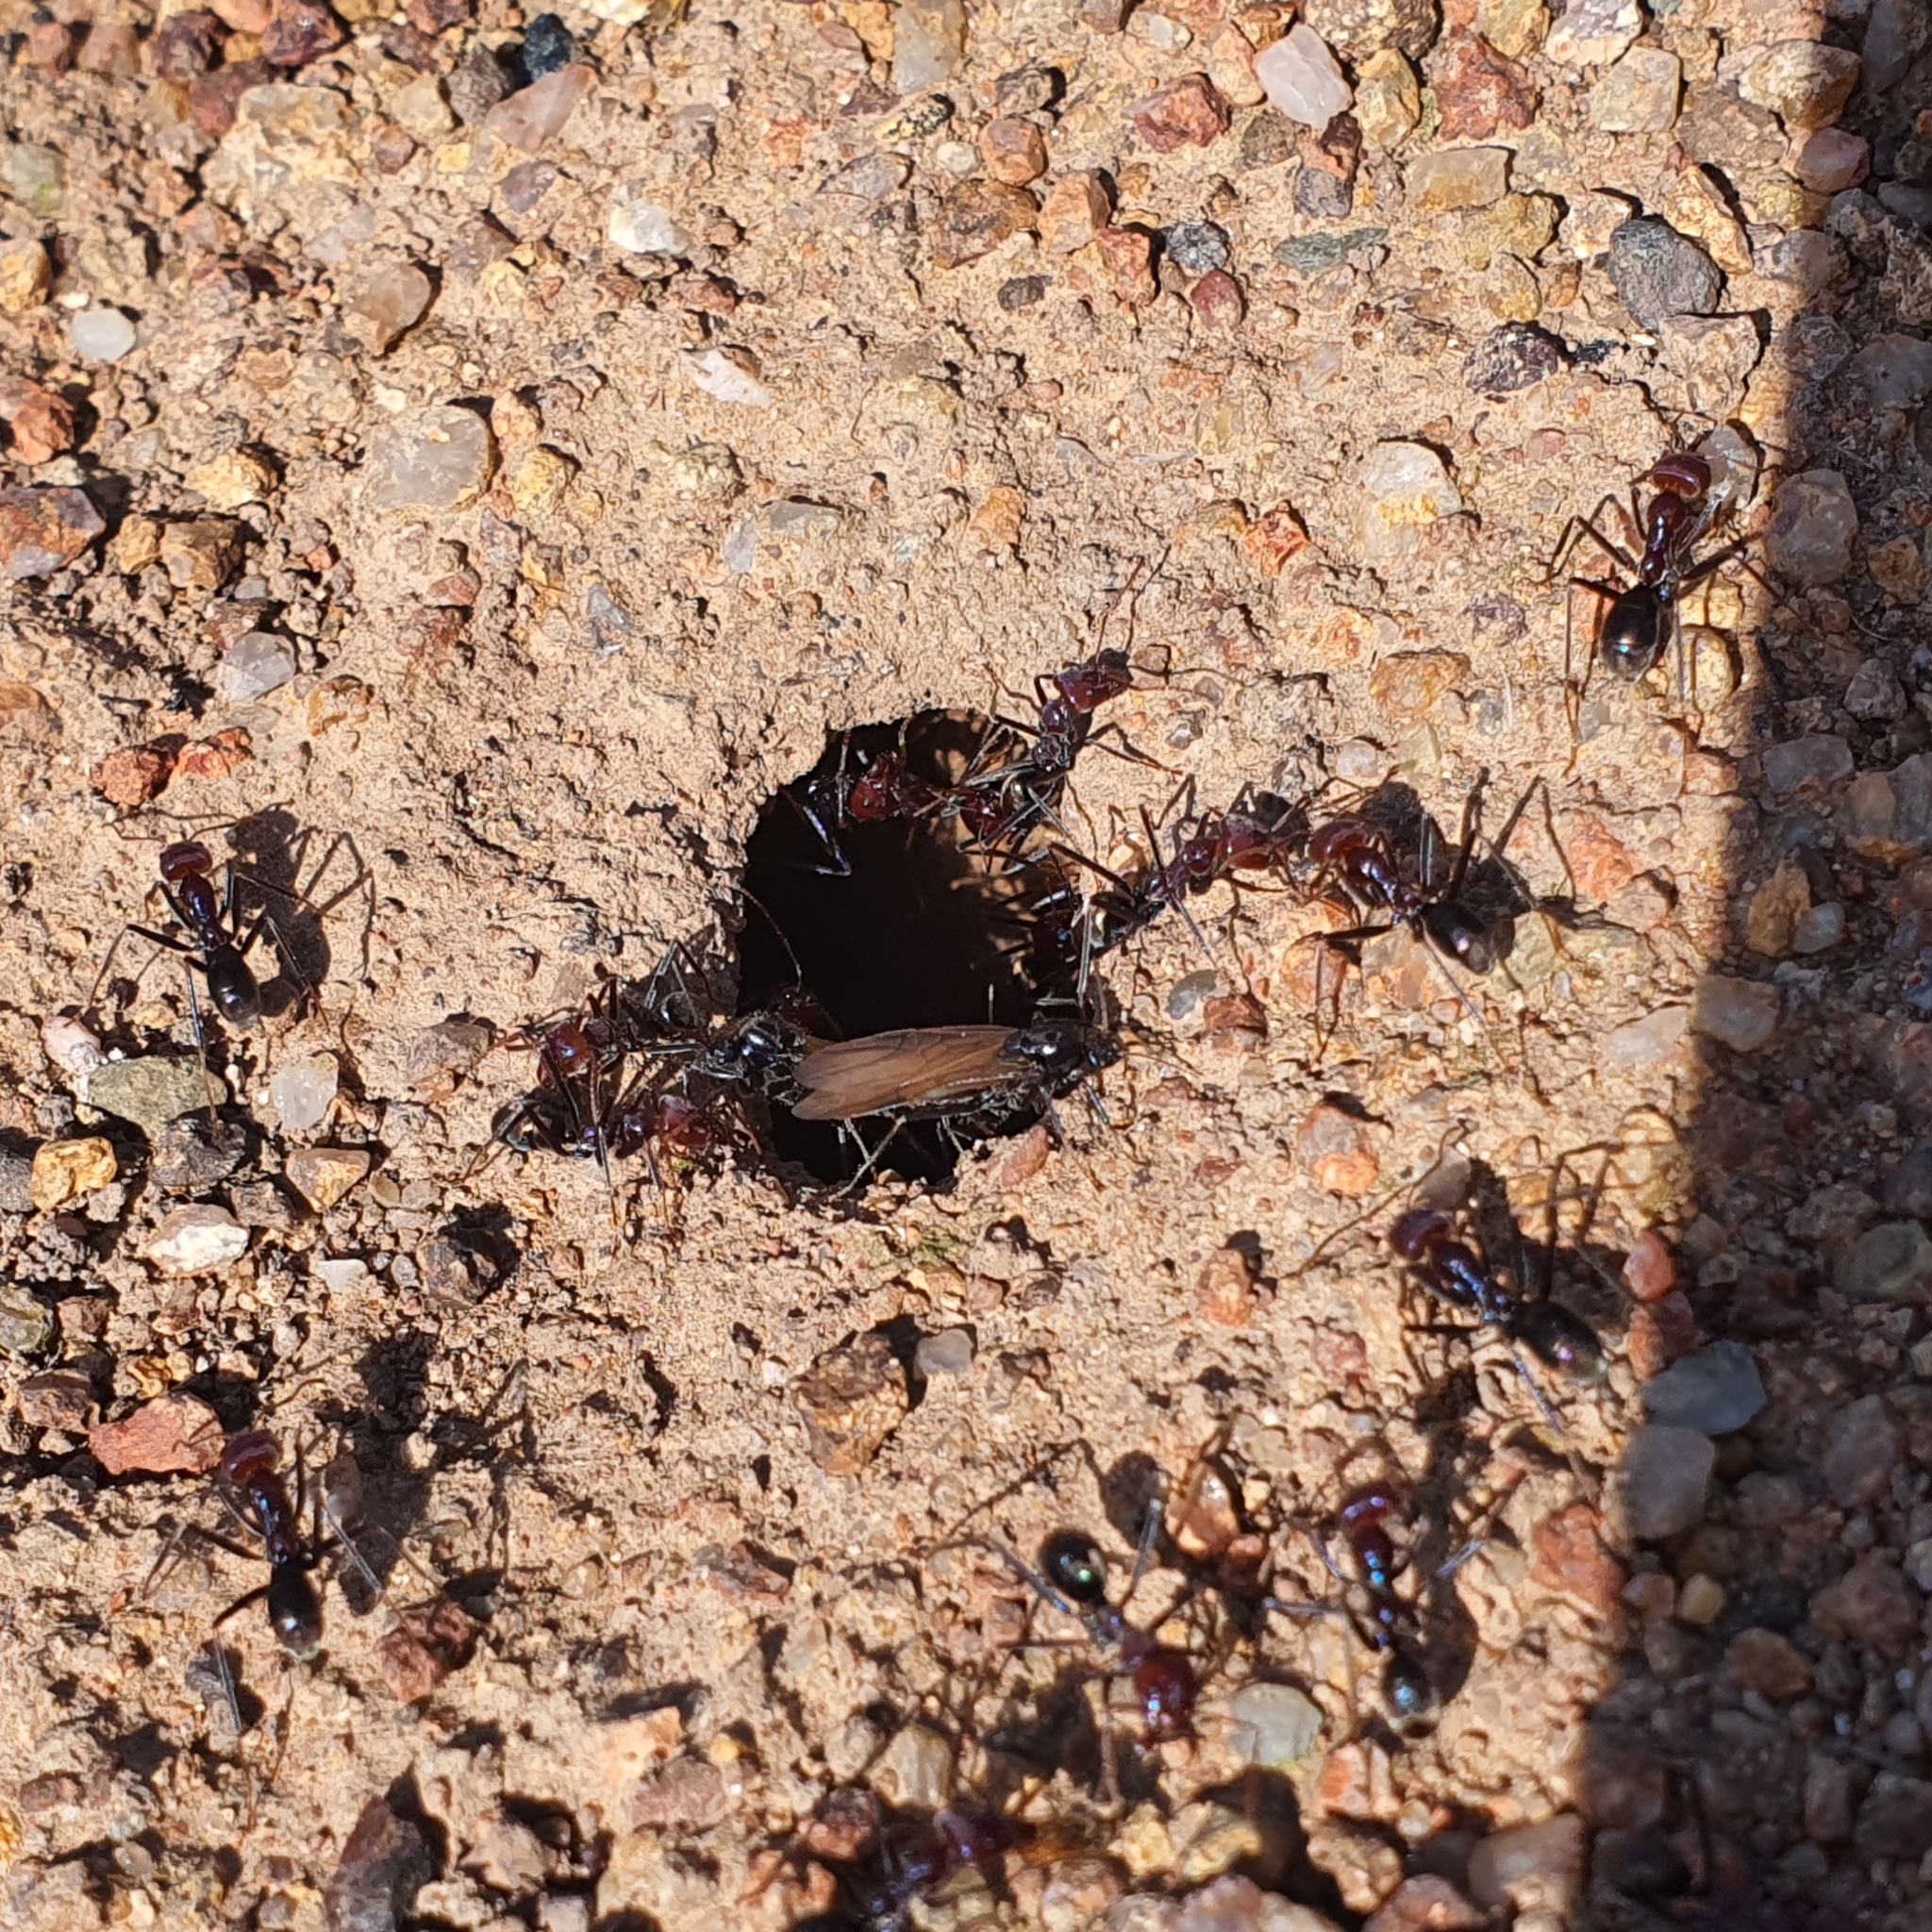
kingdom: Animalia
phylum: Arthropoda
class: Insecta
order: Hymenoptera
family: Formicidae
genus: Iridomyrmex
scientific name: Iridomyrmex purpureus
